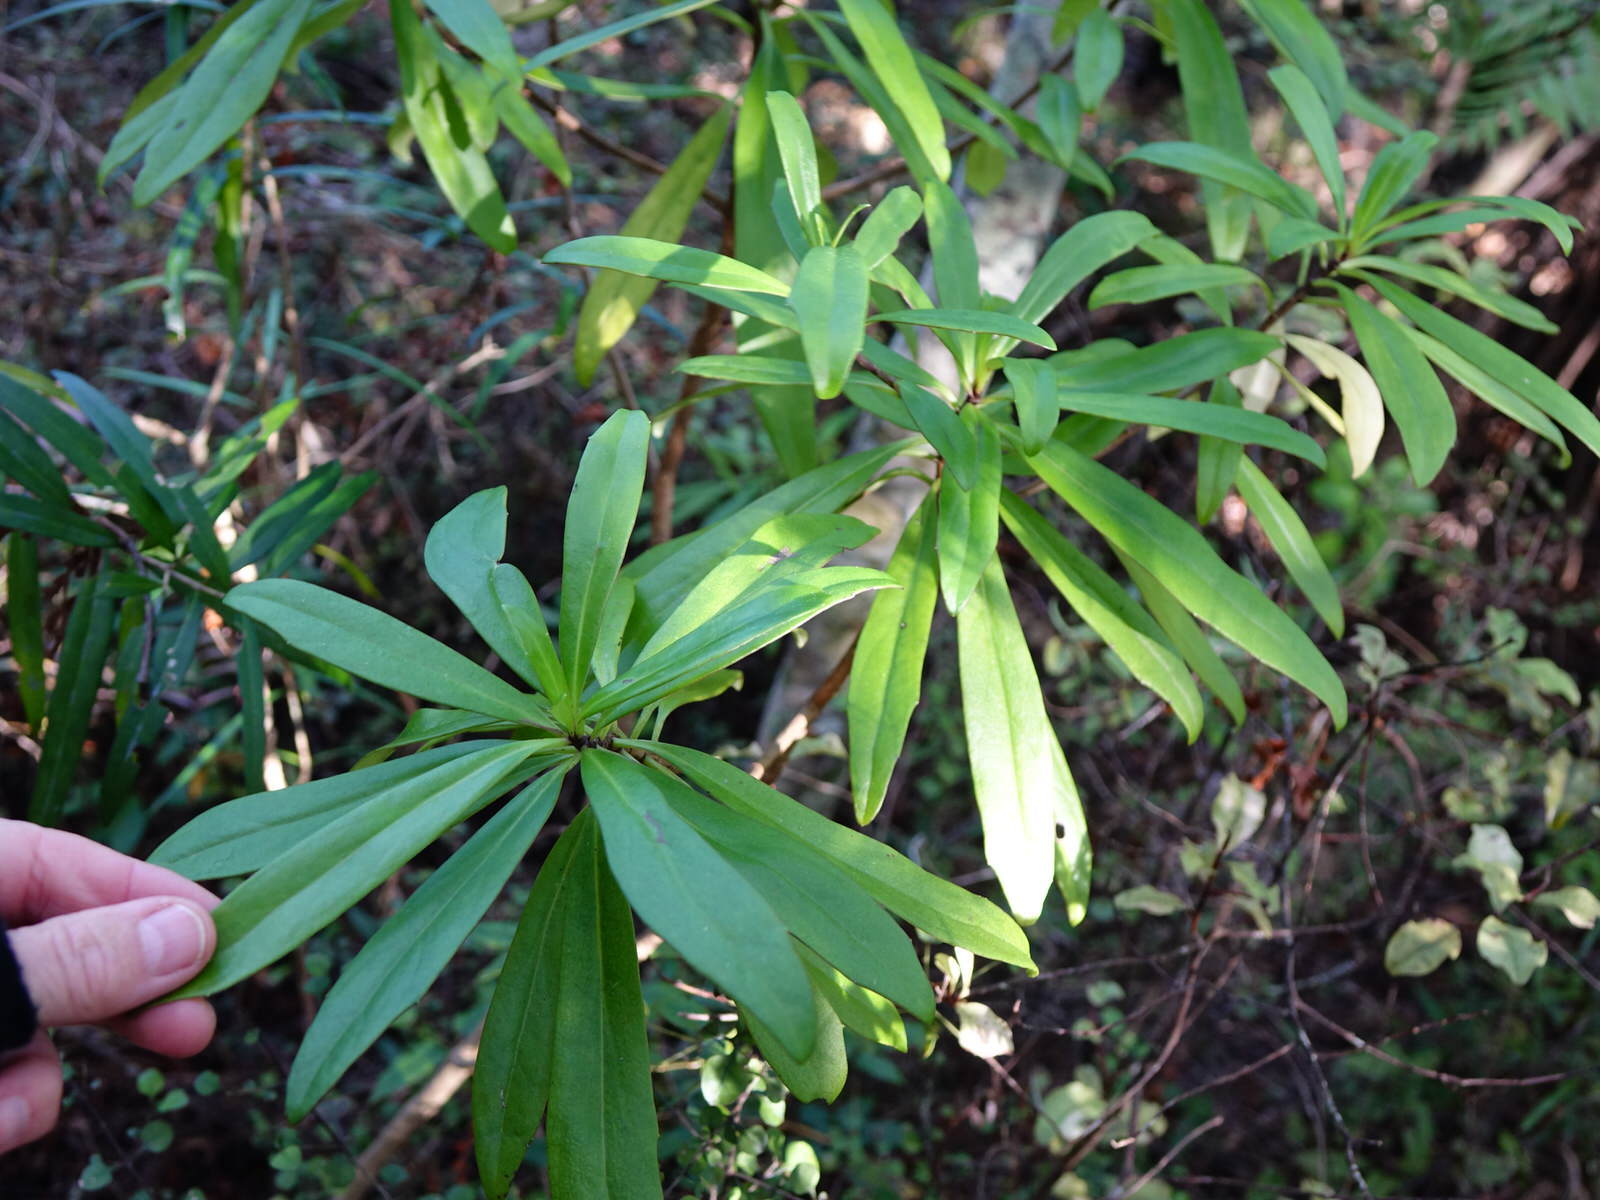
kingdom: Plantae
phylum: Tracheophyta
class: Magnoliopsida
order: Asterales
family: Asteraceae
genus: Brachyglottis
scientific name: Brachyglottis kirkii
